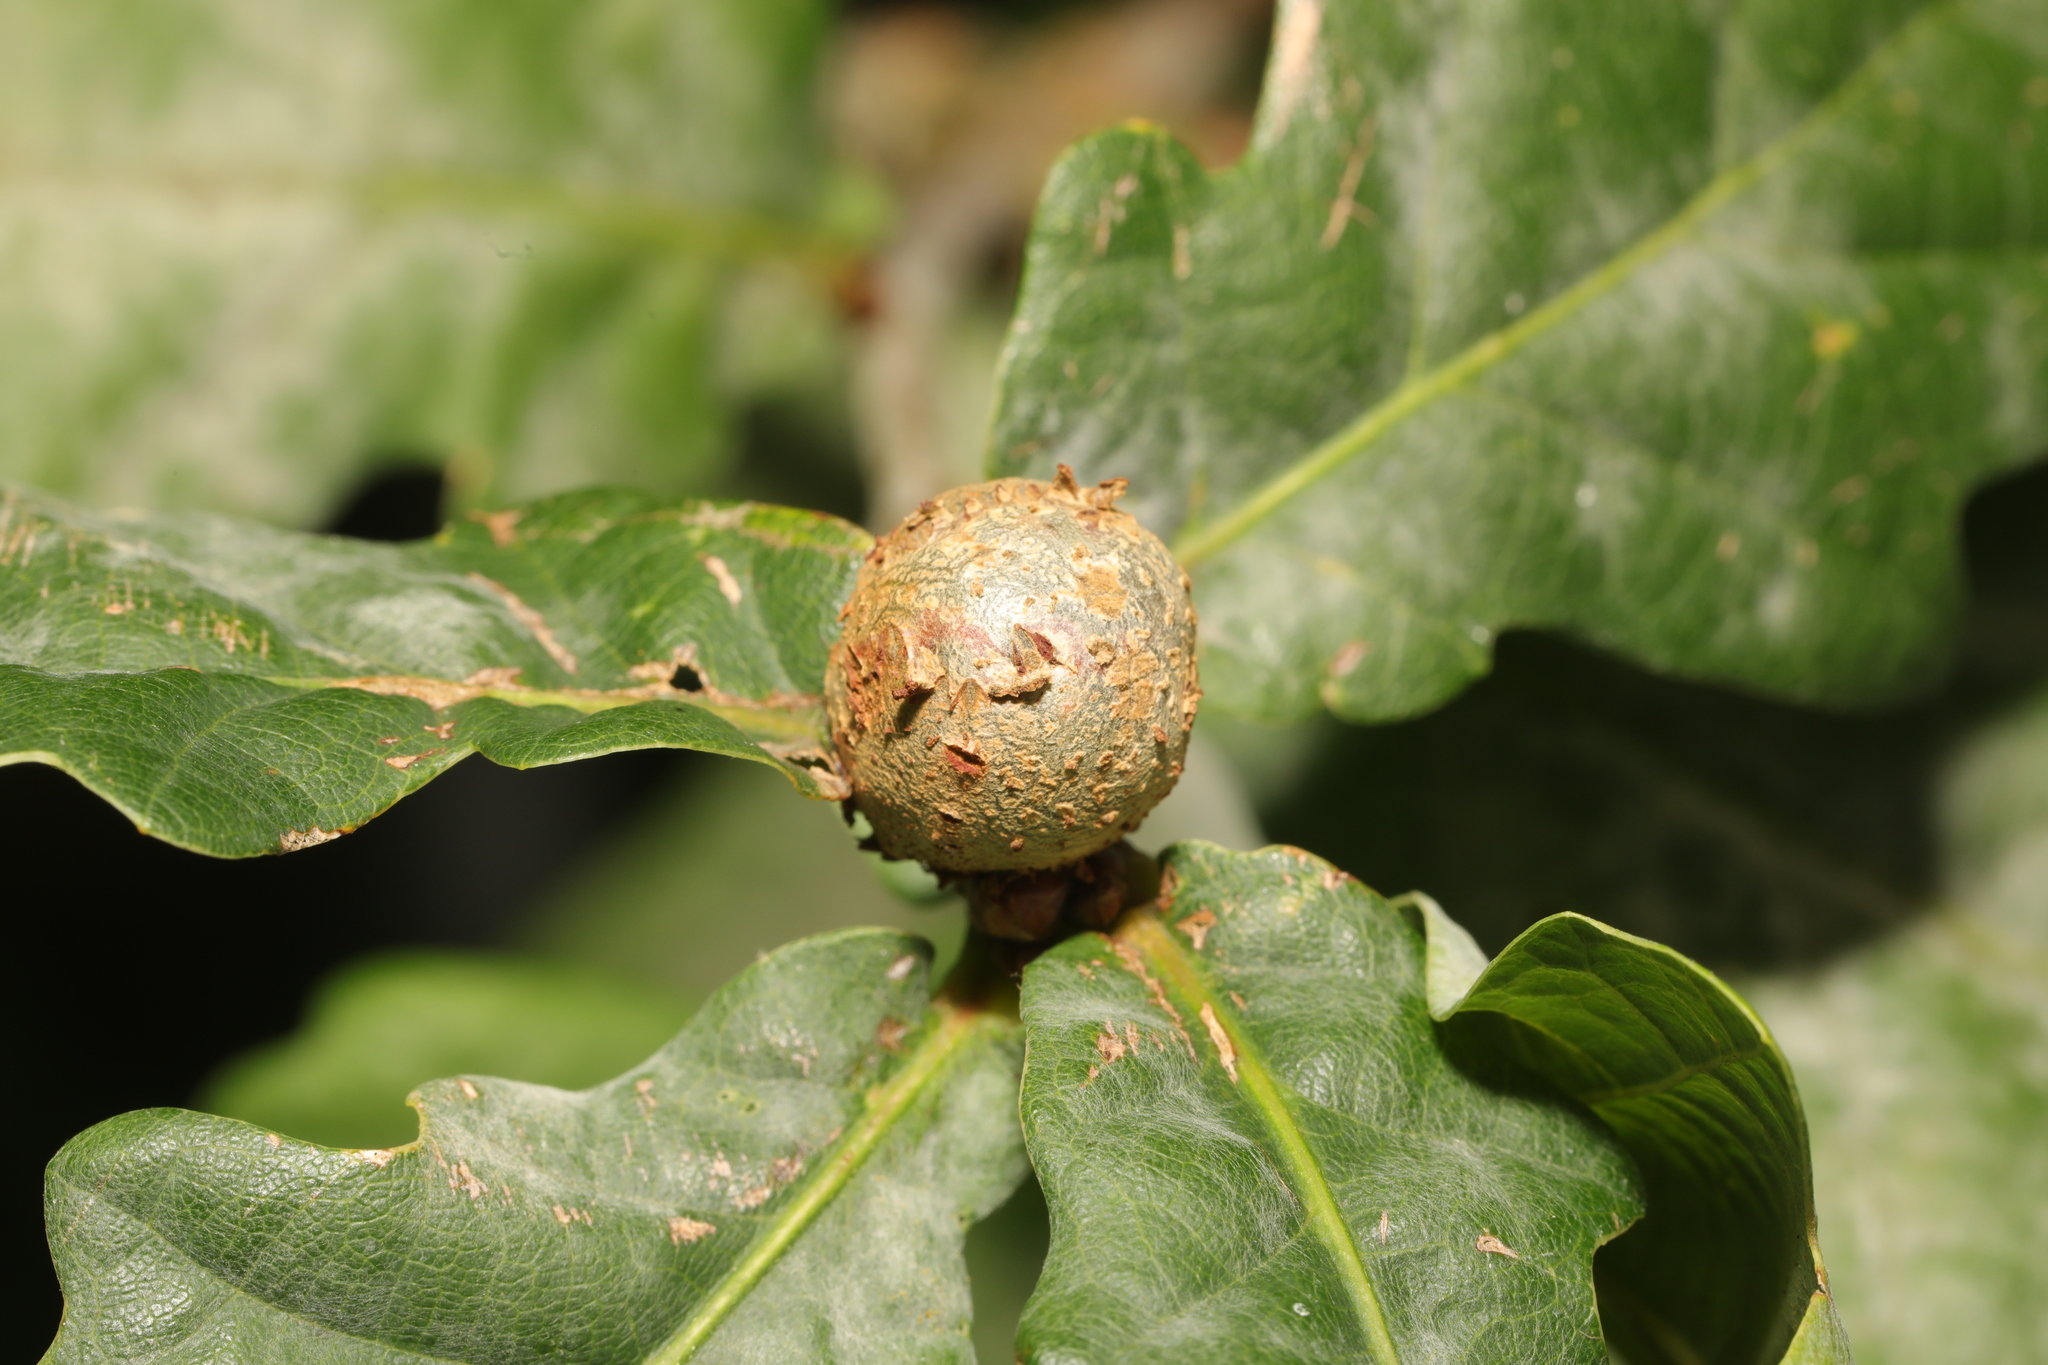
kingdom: Animalia
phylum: Arthropoda
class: Insecta
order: Hymenoptera
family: Cynipidae
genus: Andricus
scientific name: Andricus lignicolus
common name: Cola-nut gall
